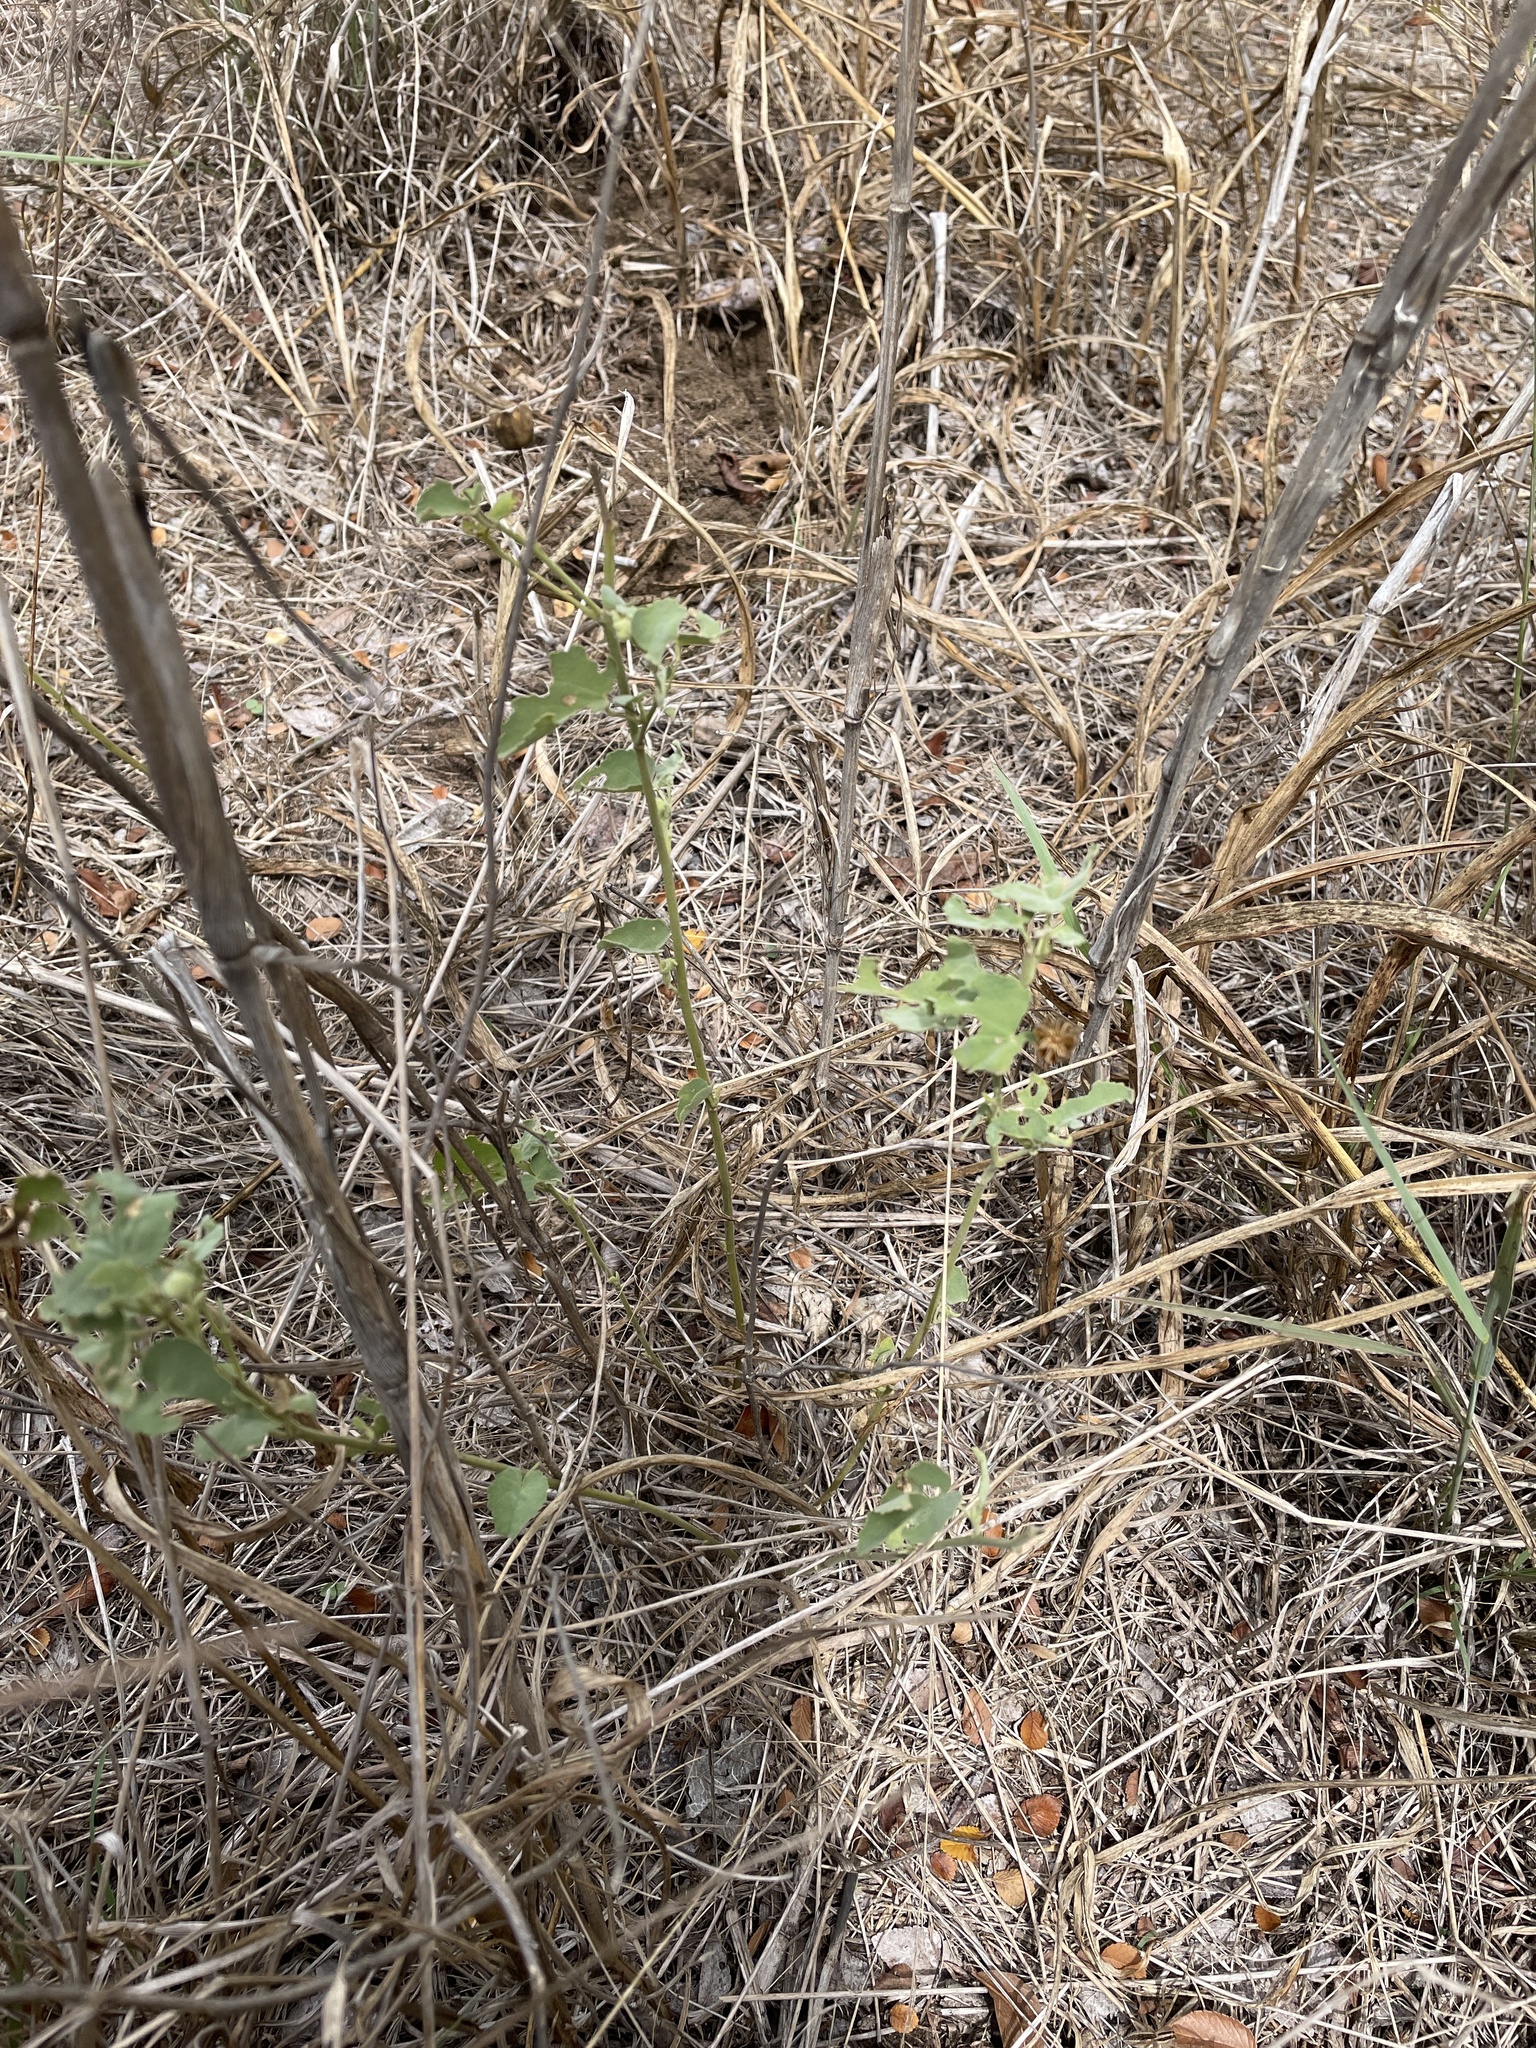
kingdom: Plantae
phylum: Tracheophyta
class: Magnoliopsida
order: Malvales
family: Malvaceae
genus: Abutilon
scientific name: Abutilon fruticosum
